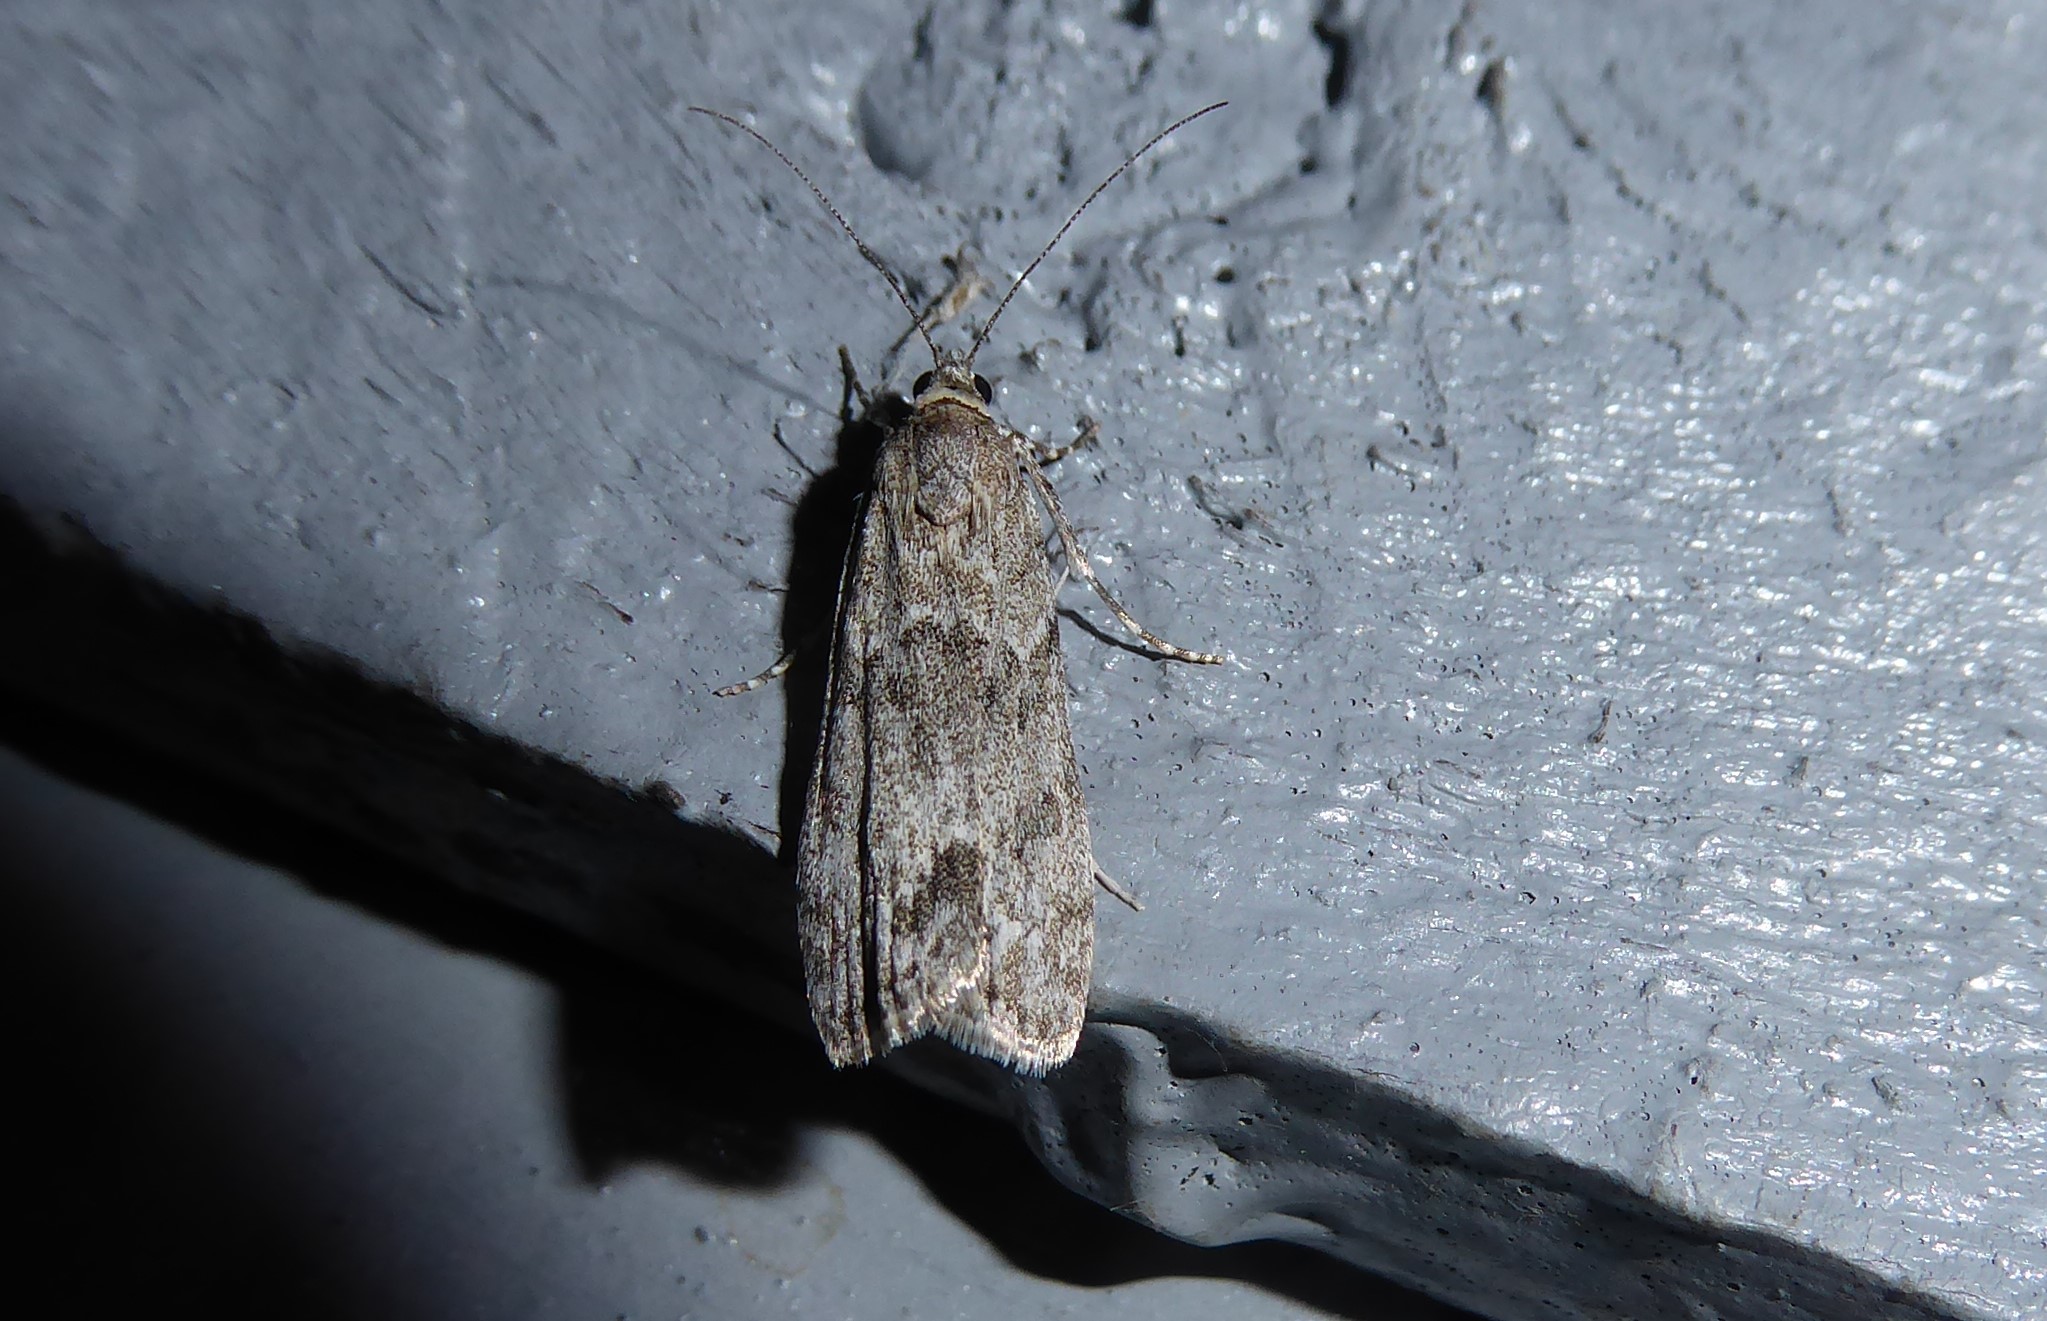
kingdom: Animalia
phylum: Arthropoda
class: Insecta
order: Lepidoptera
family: Crambidae
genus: Eudonia
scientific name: Eudonia rakaiensis
